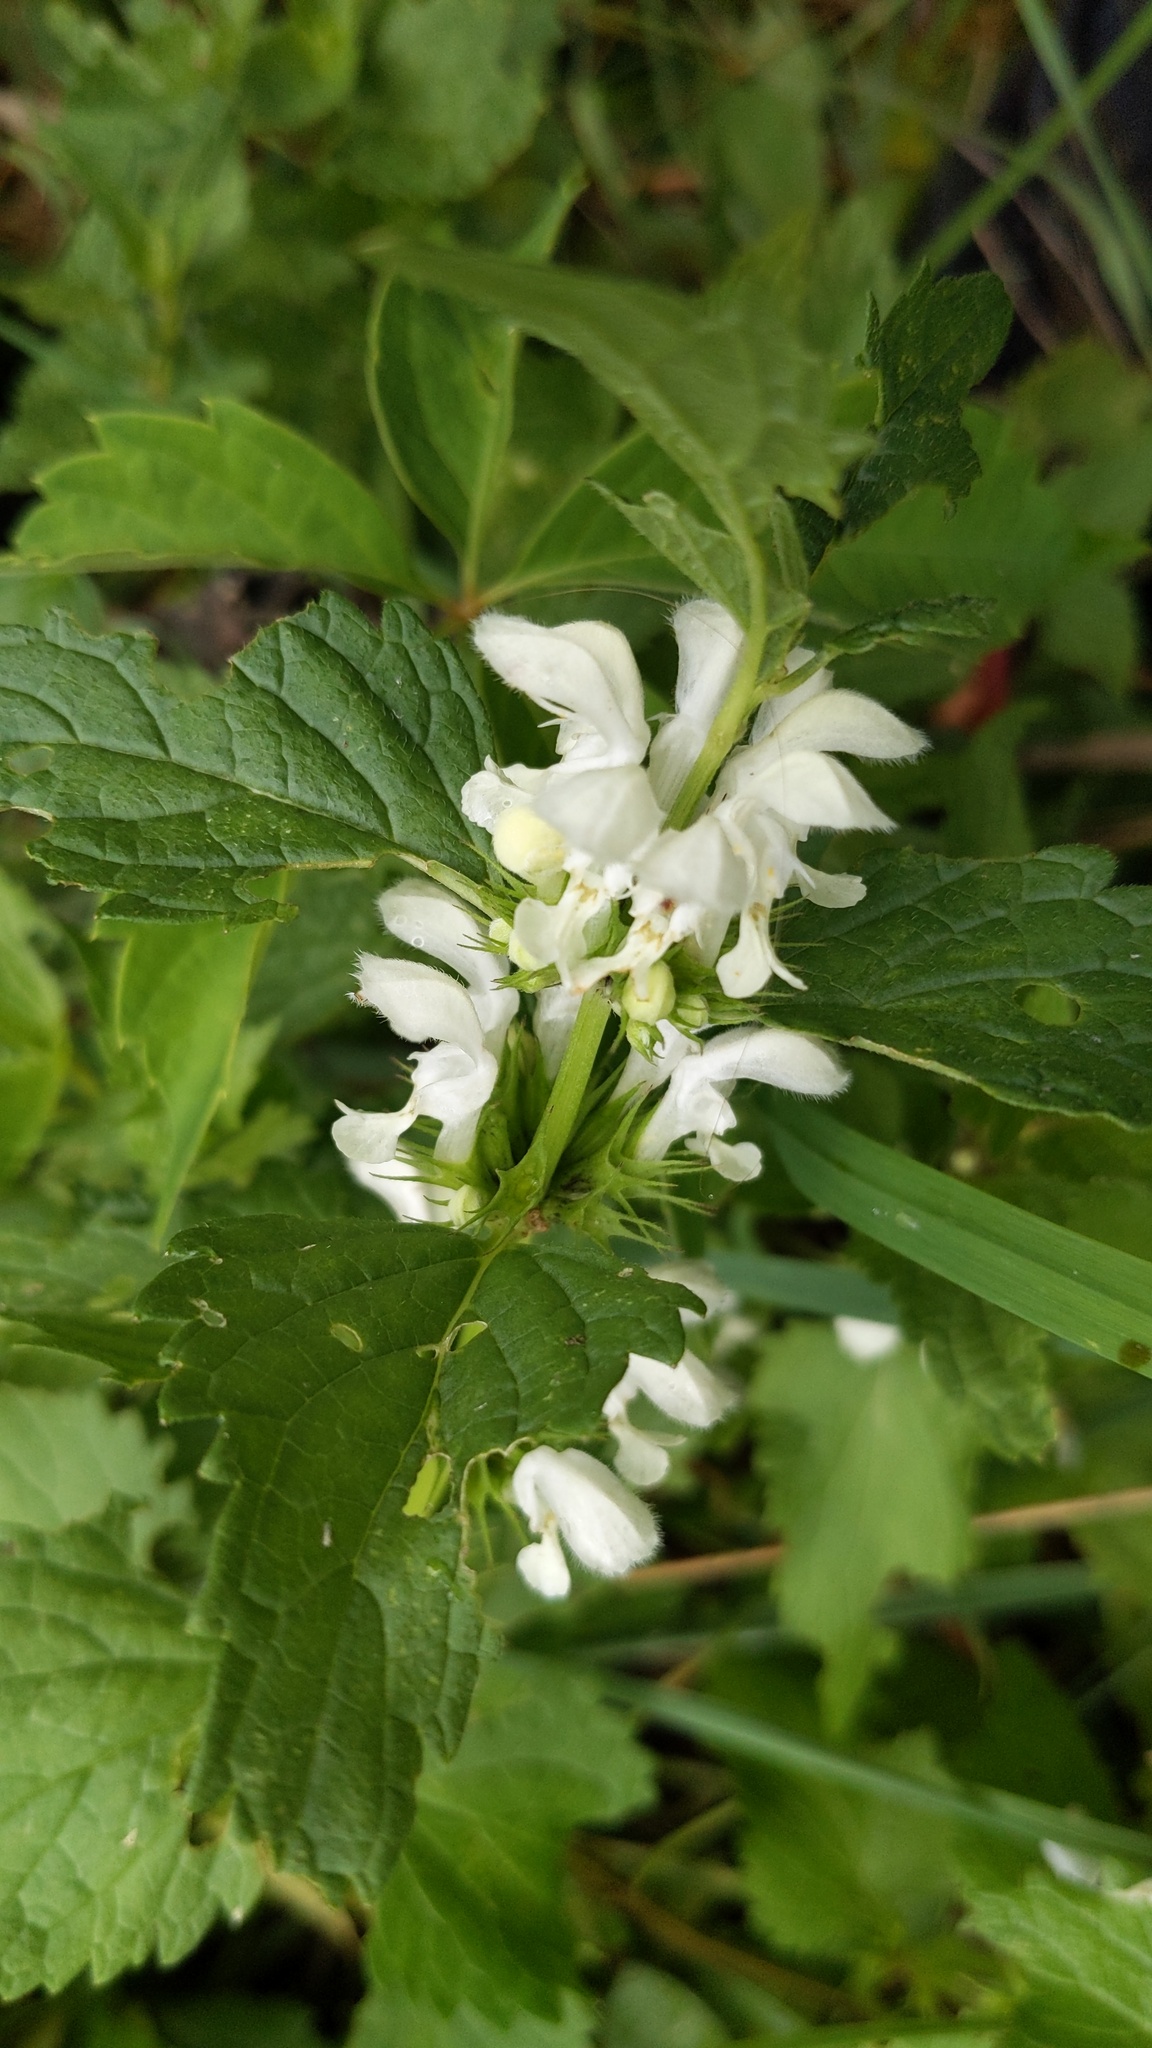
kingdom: Plantae
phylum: Tracheophyta
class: Magnoliopsida
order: Lamiales
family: Lamiaceae
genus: Lamium
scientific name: Lamium album
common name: White dead-nettle
